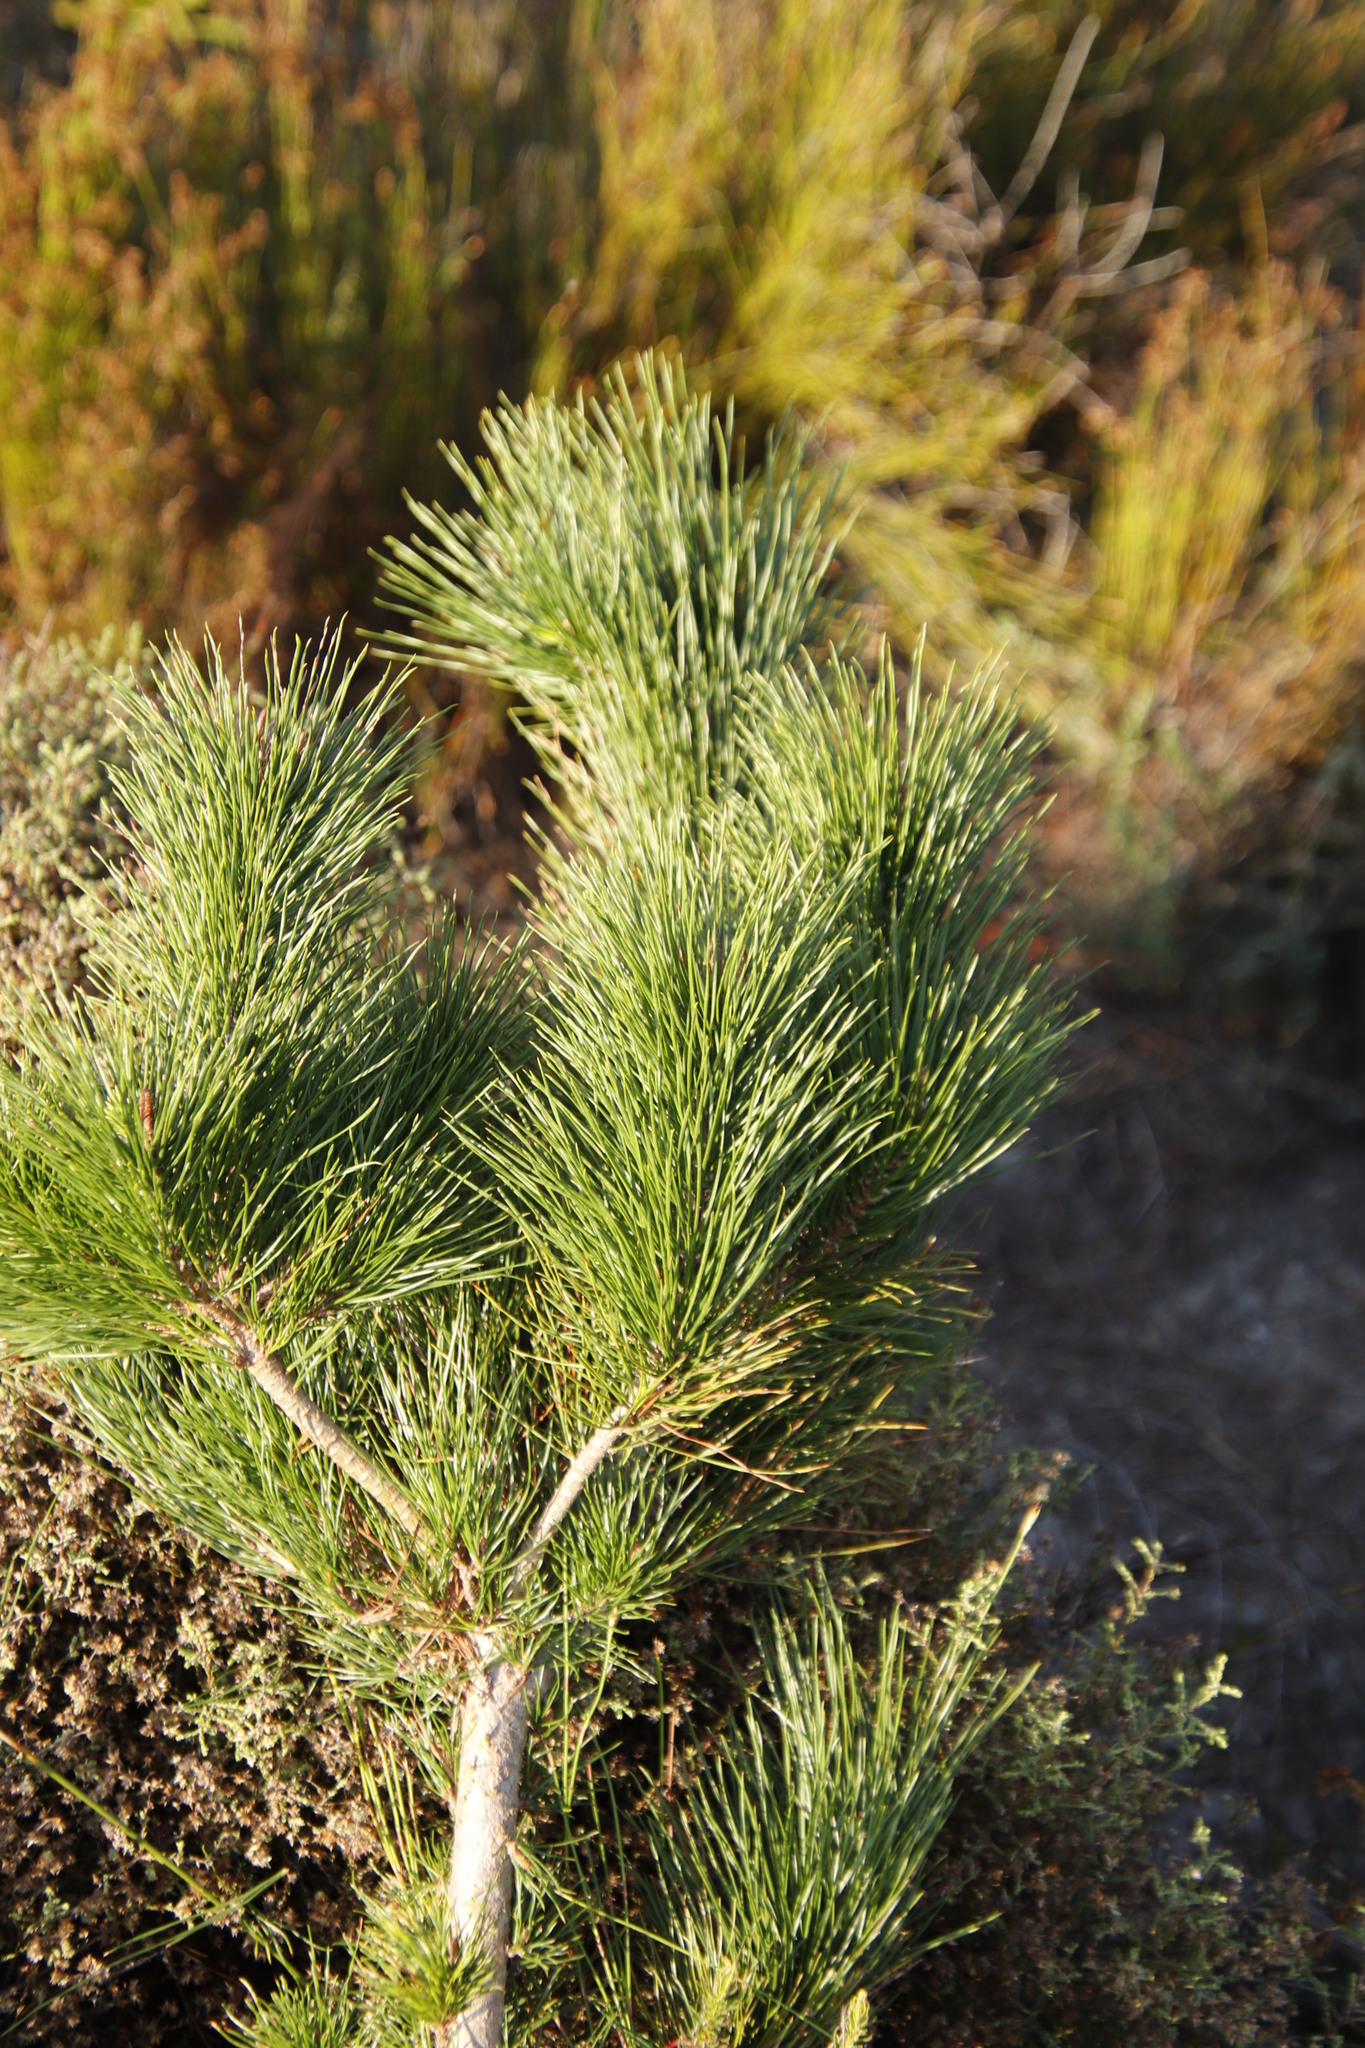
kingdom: Plantae
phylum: Tracheophyta
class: Pinopsida
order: Pinales
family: Pinaceae
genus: Pinus
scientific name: Pinus radiata
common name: Monterey pine
